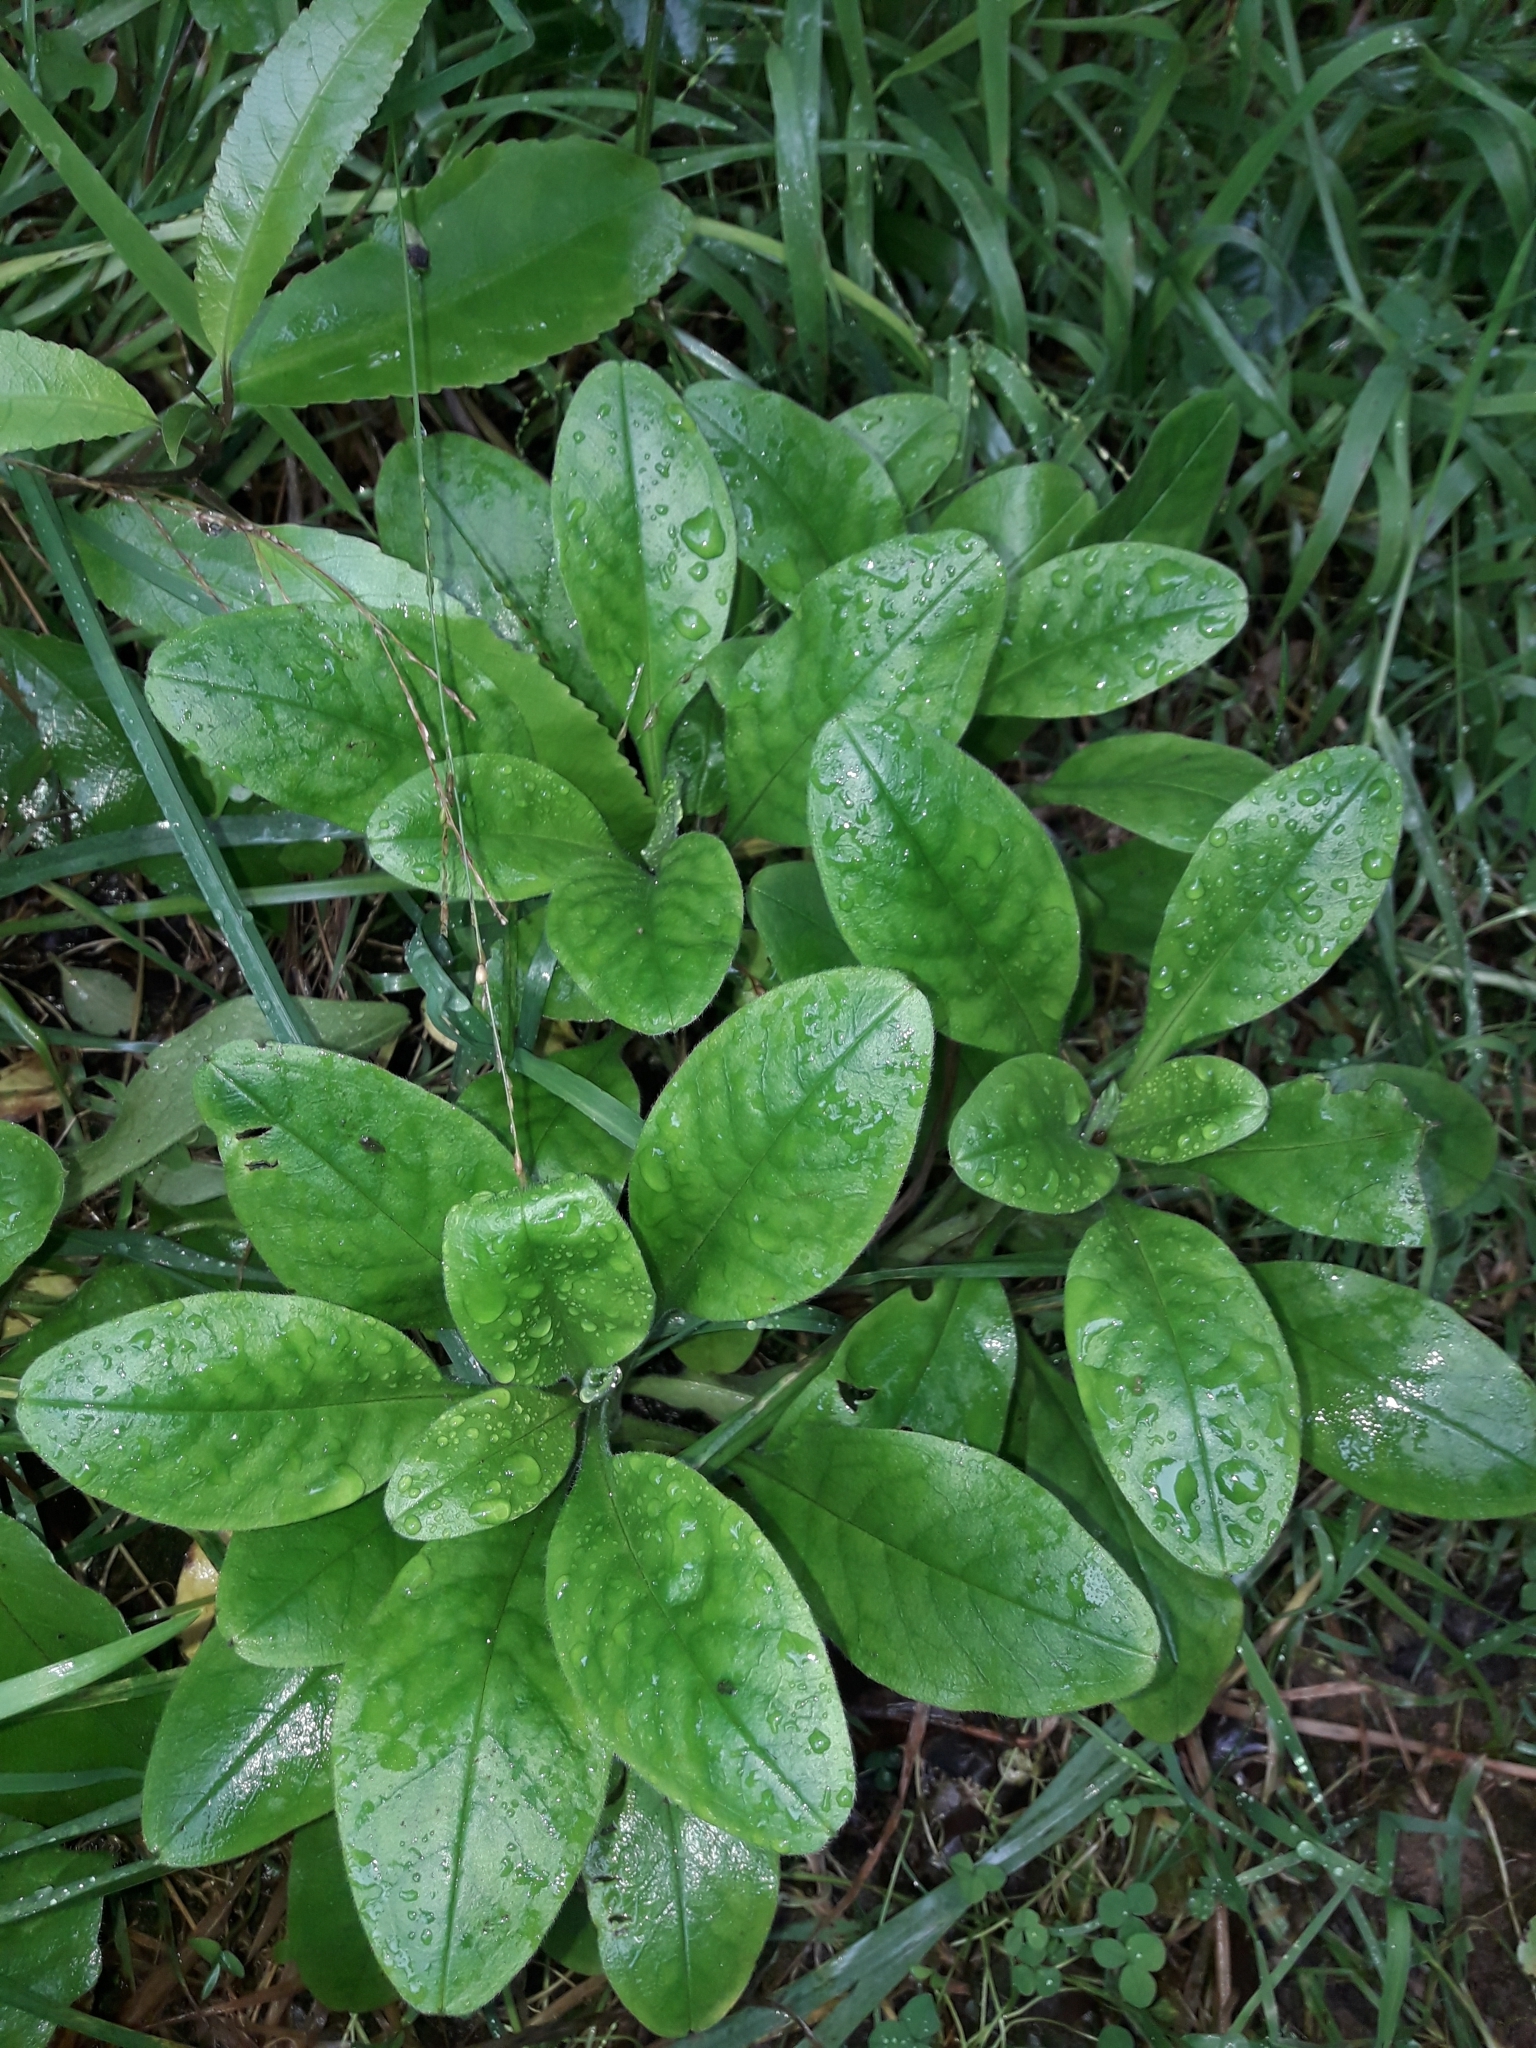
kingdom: Plantae
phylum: Tracheophyta
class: Magnoliopsida
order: Boraginales
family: Boraginaceae
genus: Myosotis
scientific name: Myosotis sylvatica
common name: Wood forget-me-not
